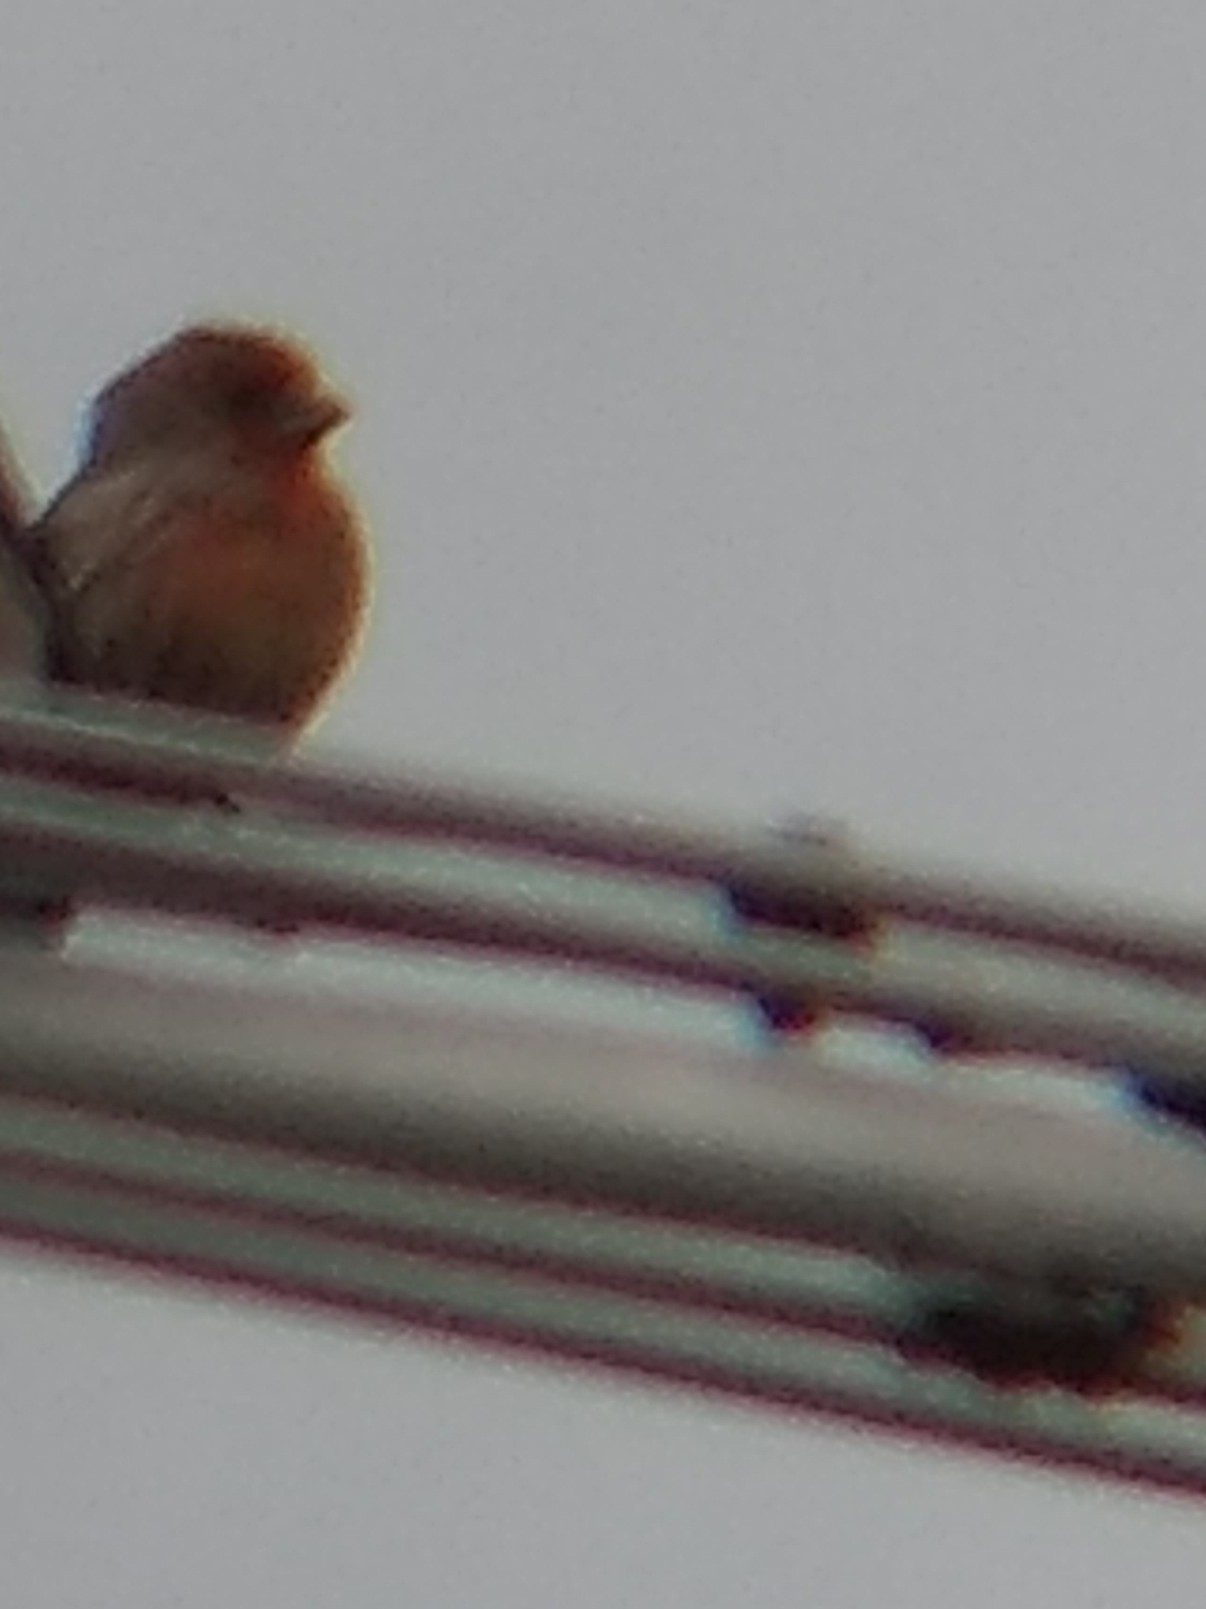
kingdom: Animalia
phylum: Chordata
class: Aves
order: Passeriformes
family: Fringillidae
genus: Haemorhous
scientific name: Haemorhous mexicanus
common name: House finch
